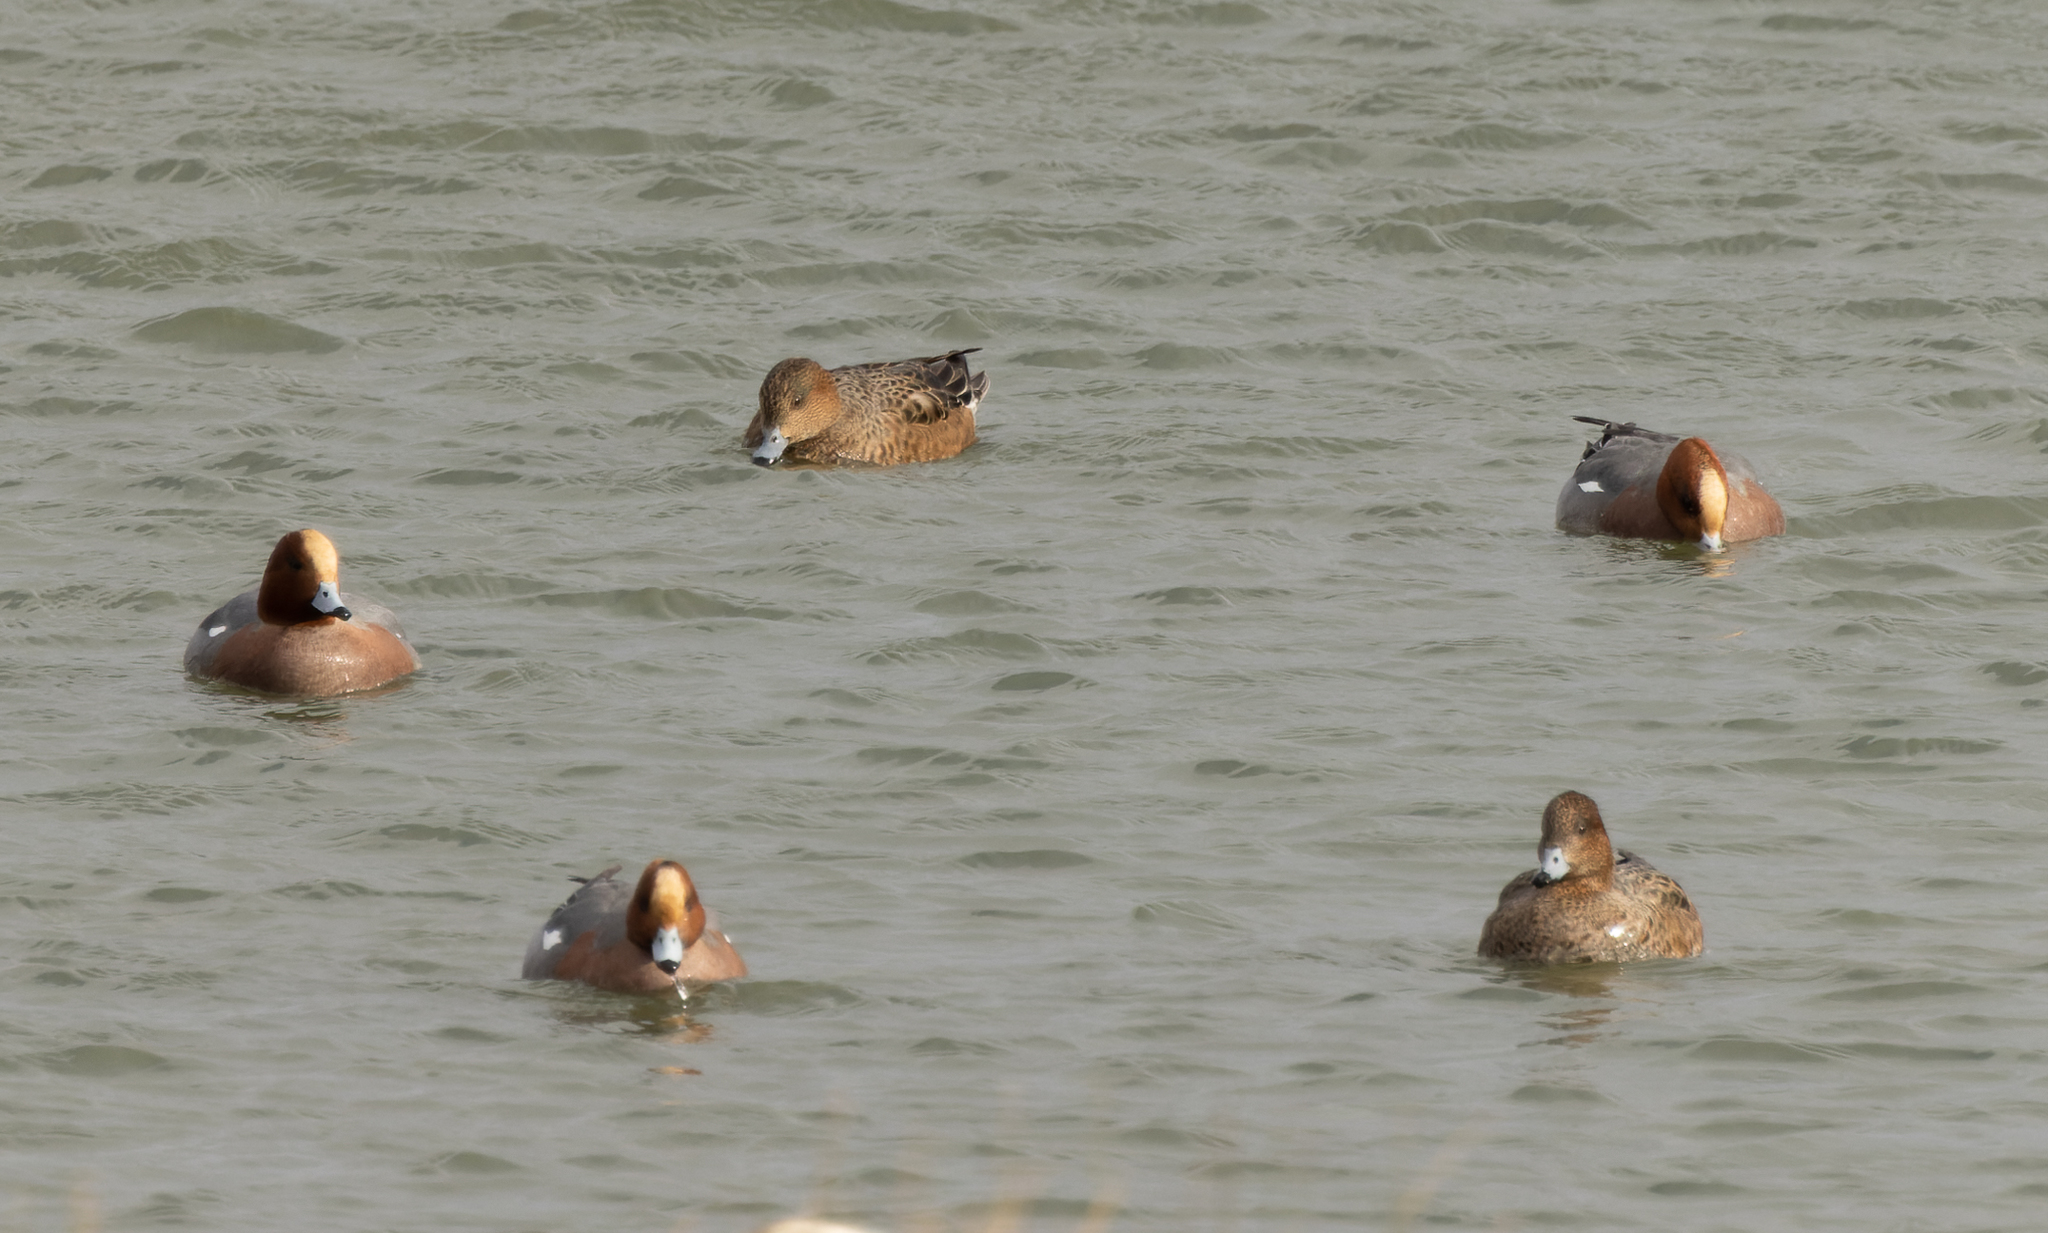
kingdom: Animalia
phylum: Chordata
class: Aves
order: Anseriformes
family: Anatidae
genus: Mareca
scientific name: Mareca penelope
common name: Eurasian wigeon
